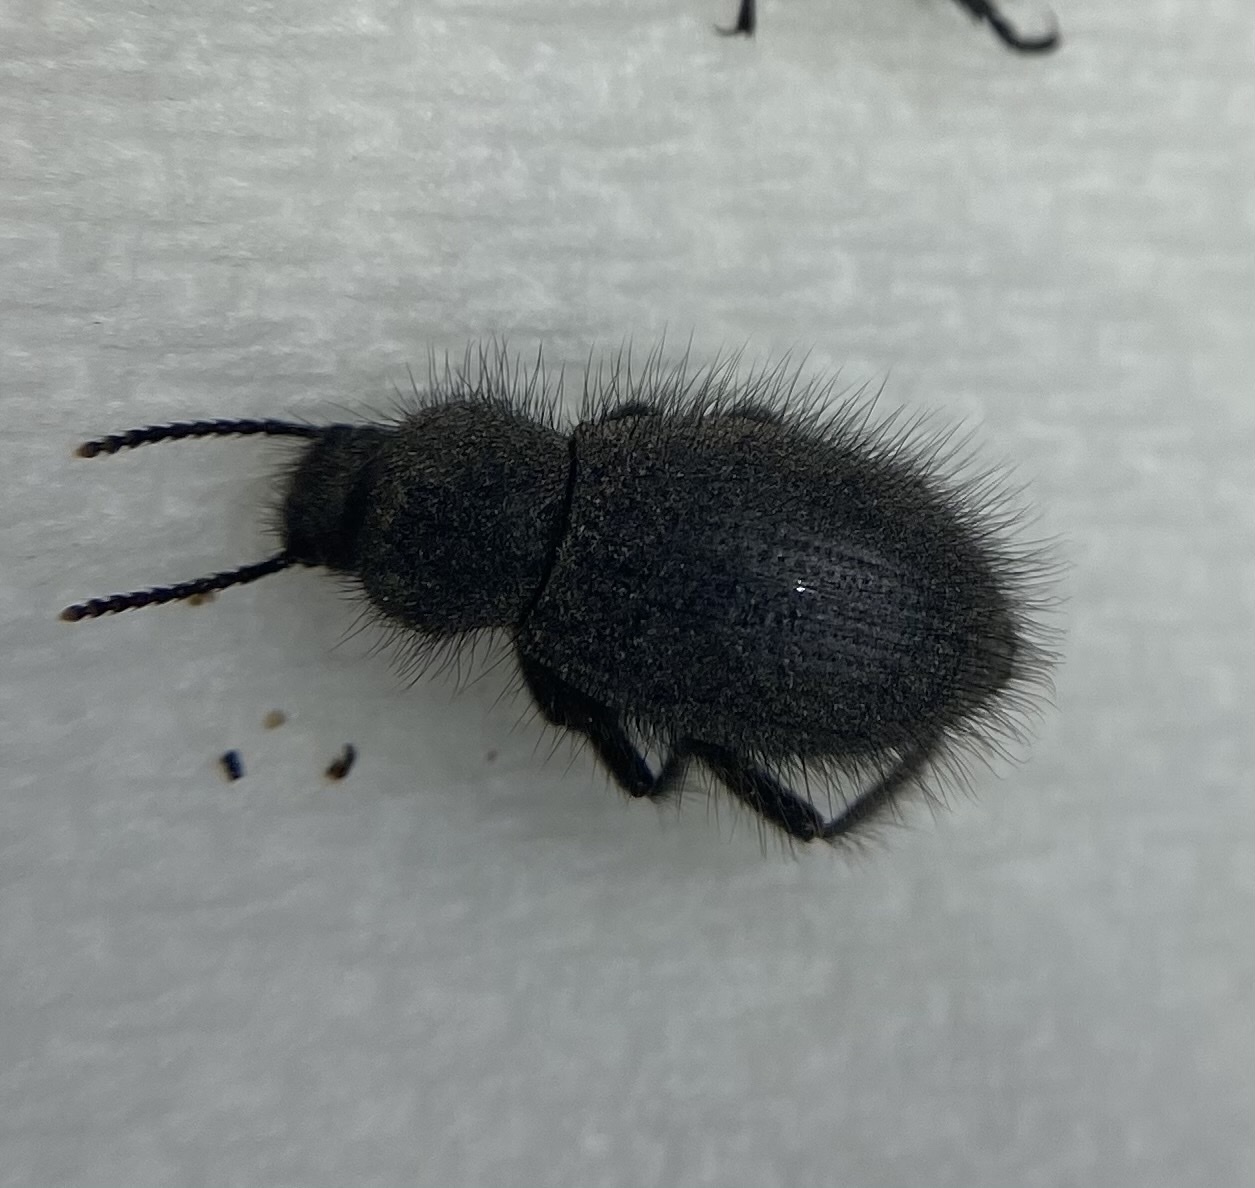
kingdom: Animalia
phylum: Arthropoda
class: Insecta
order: Coleoptera
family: Tenebrionidae
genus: Eleodes
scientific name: Eleodes tribulus
